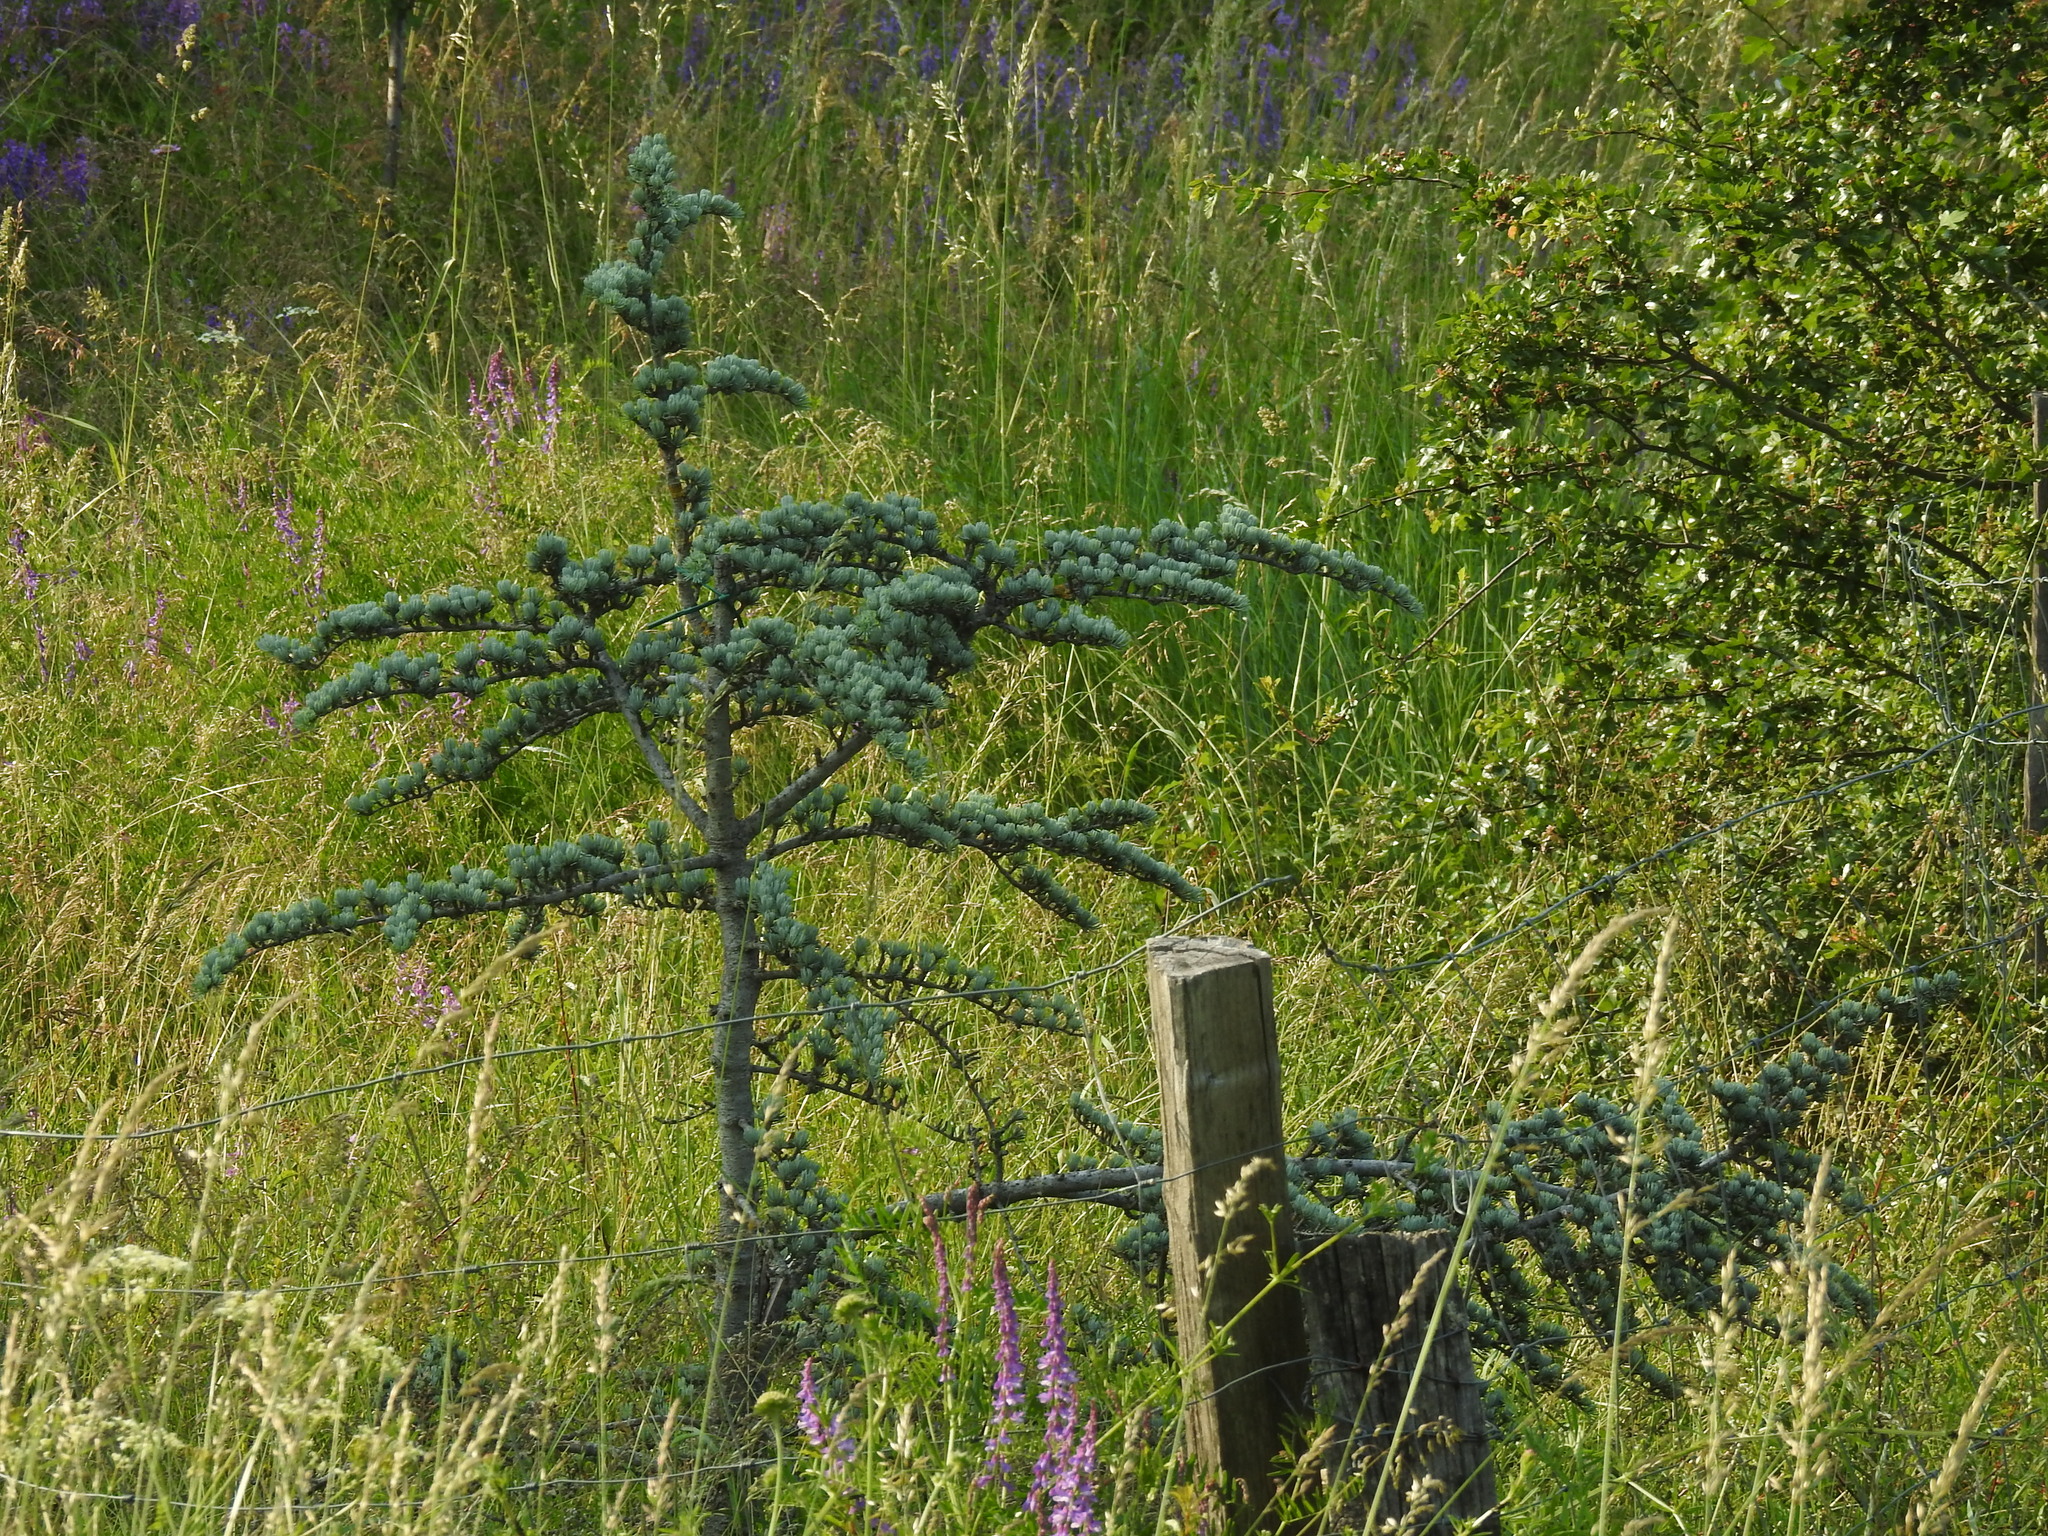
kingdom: Plantae
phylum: Tracheophyta
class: Pinopsida
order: Pinales
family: Pinaceae
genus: Cedrus
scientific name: Cedrus atlantica
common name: Atlas cedar
